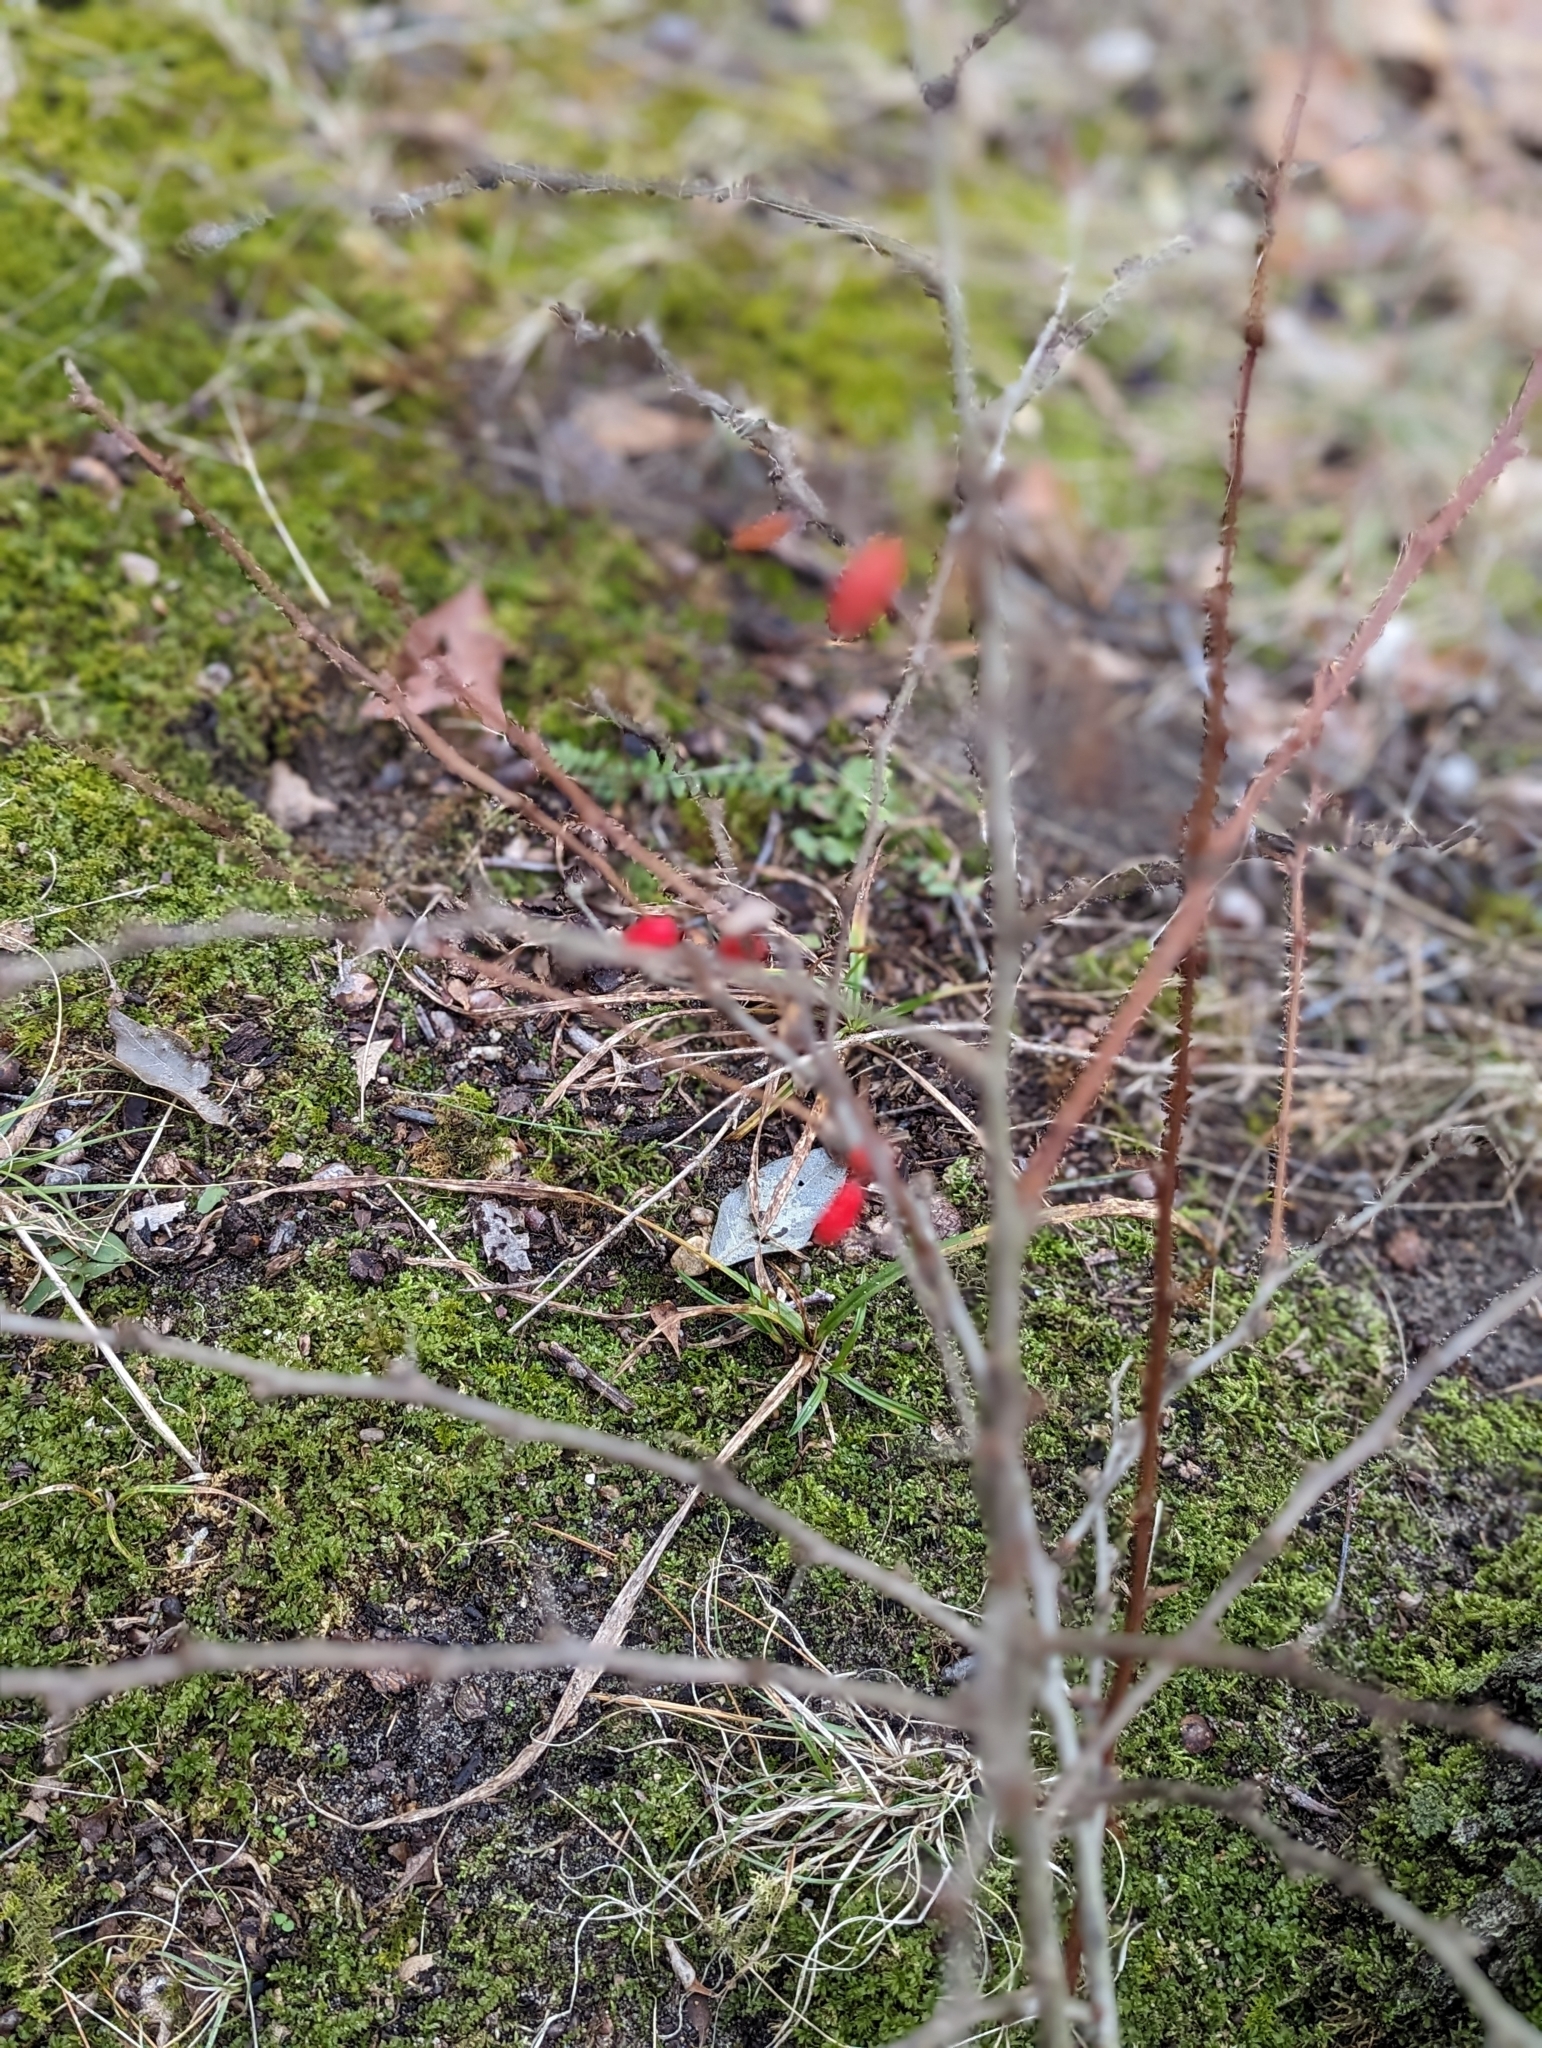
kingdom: Plantae
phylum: Tracheophyta
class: Magnoliopsida
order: Ranunculales
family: Berberidaceae
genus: Berberis
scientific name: Berberis thunbergii
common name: Japanese barberry
